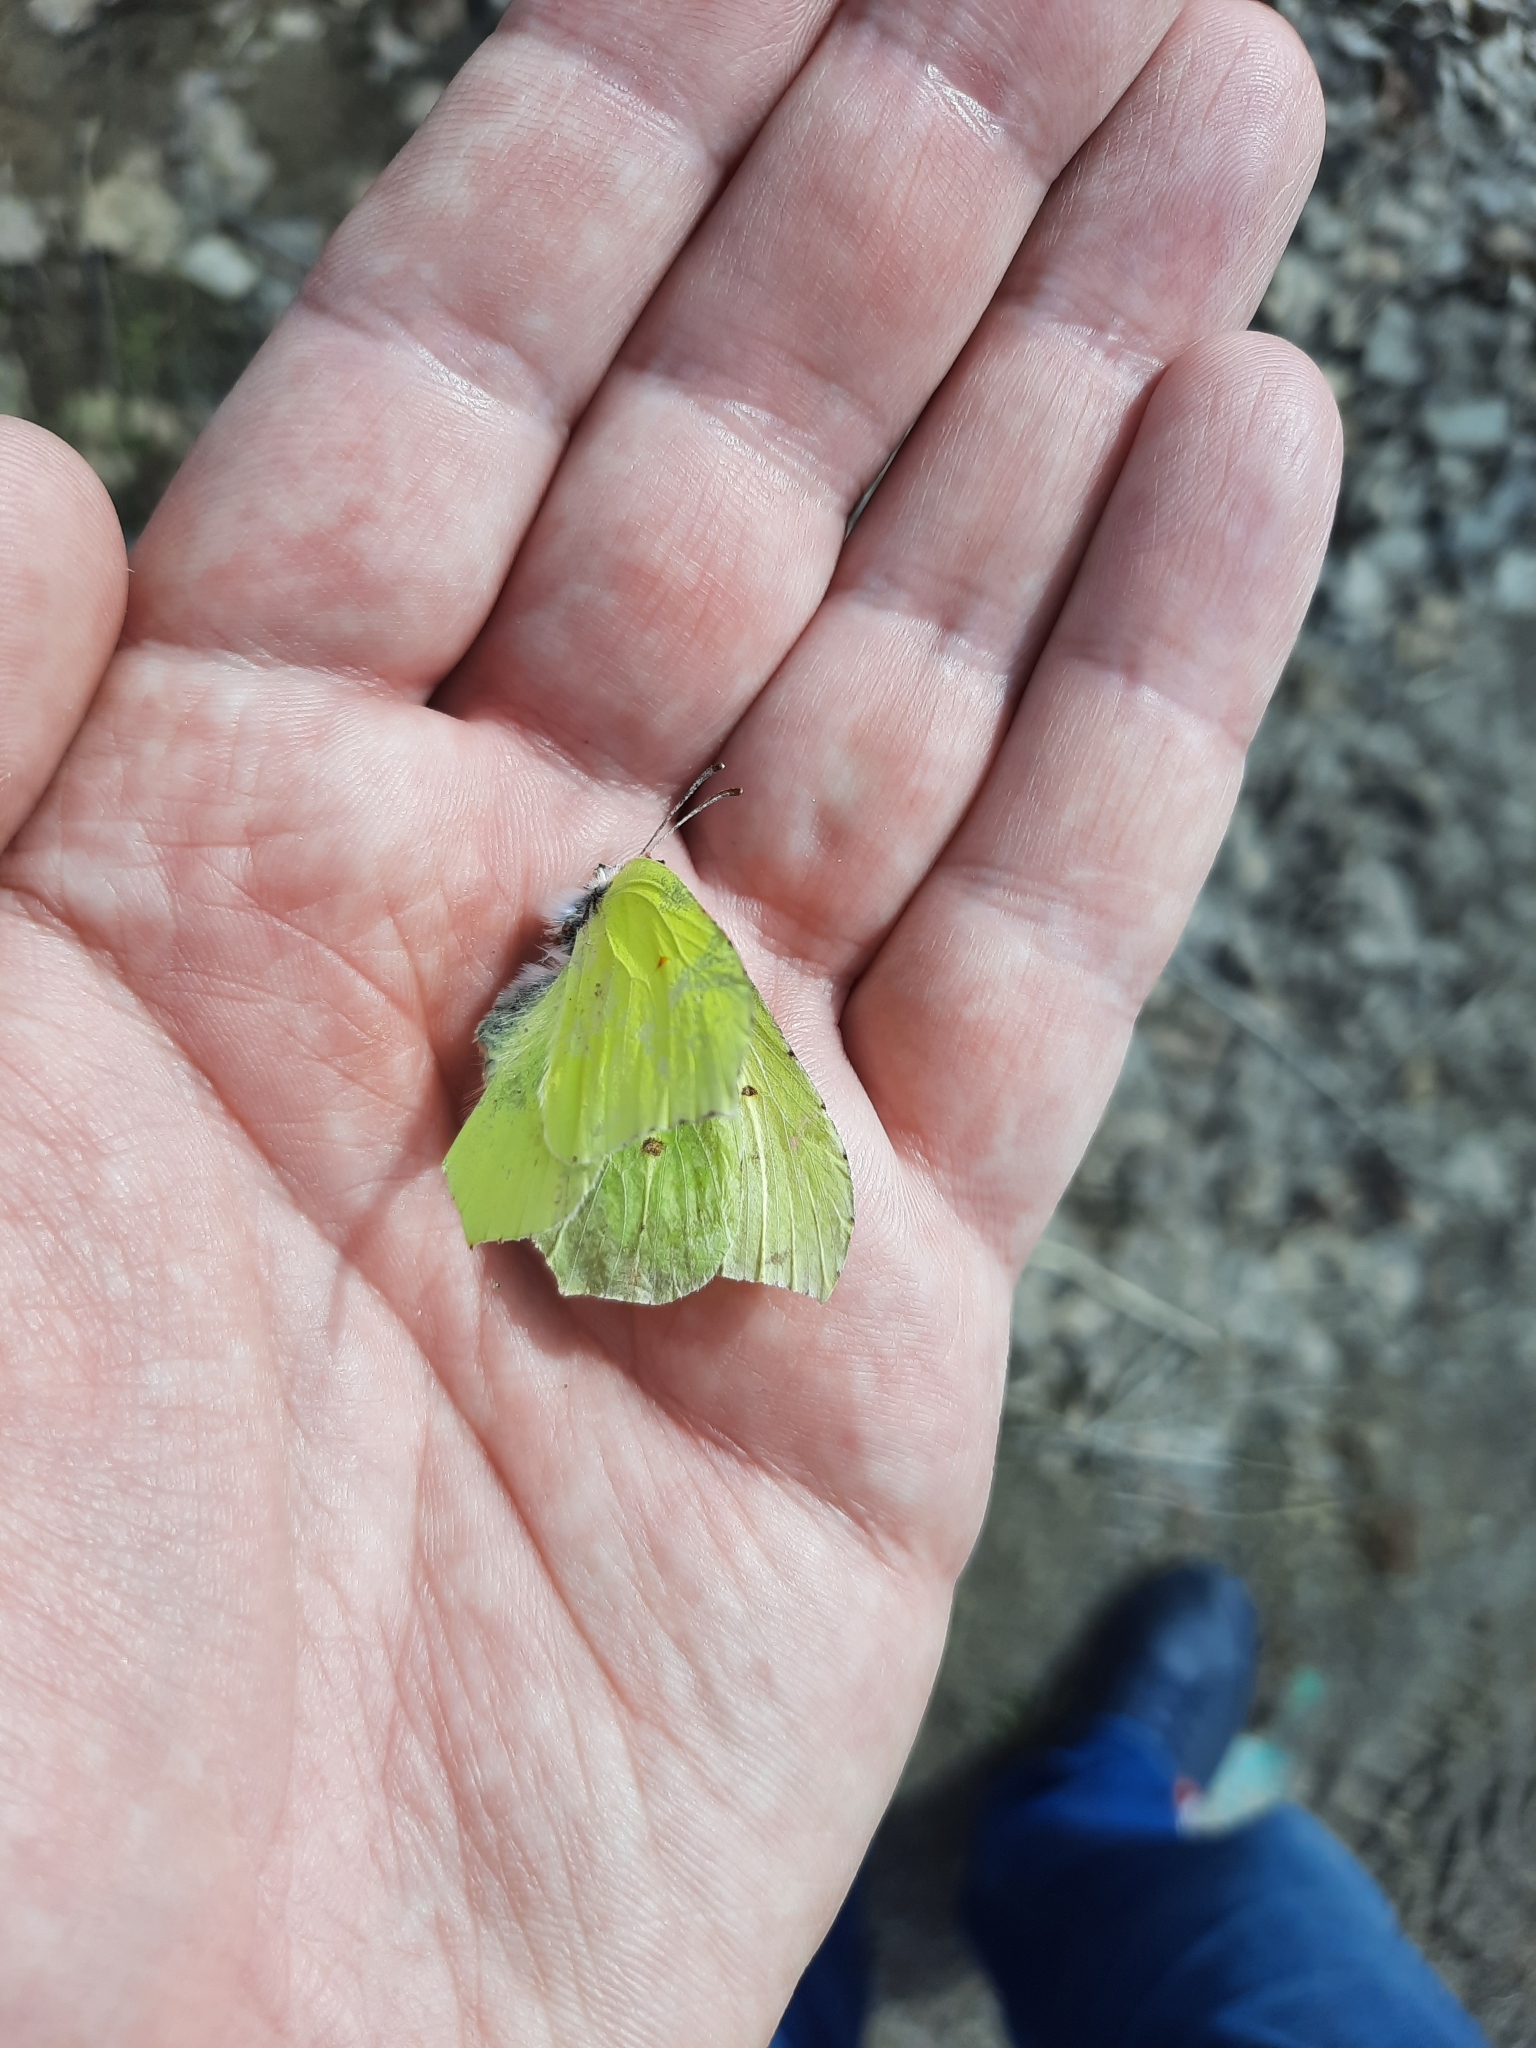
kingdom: Animalia
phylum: Arthropoda
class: Insecta
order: Lepidoptera
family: Pieridae
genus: Gonepteryx
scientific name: Gonepteryx rhamni
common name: Brimstone
